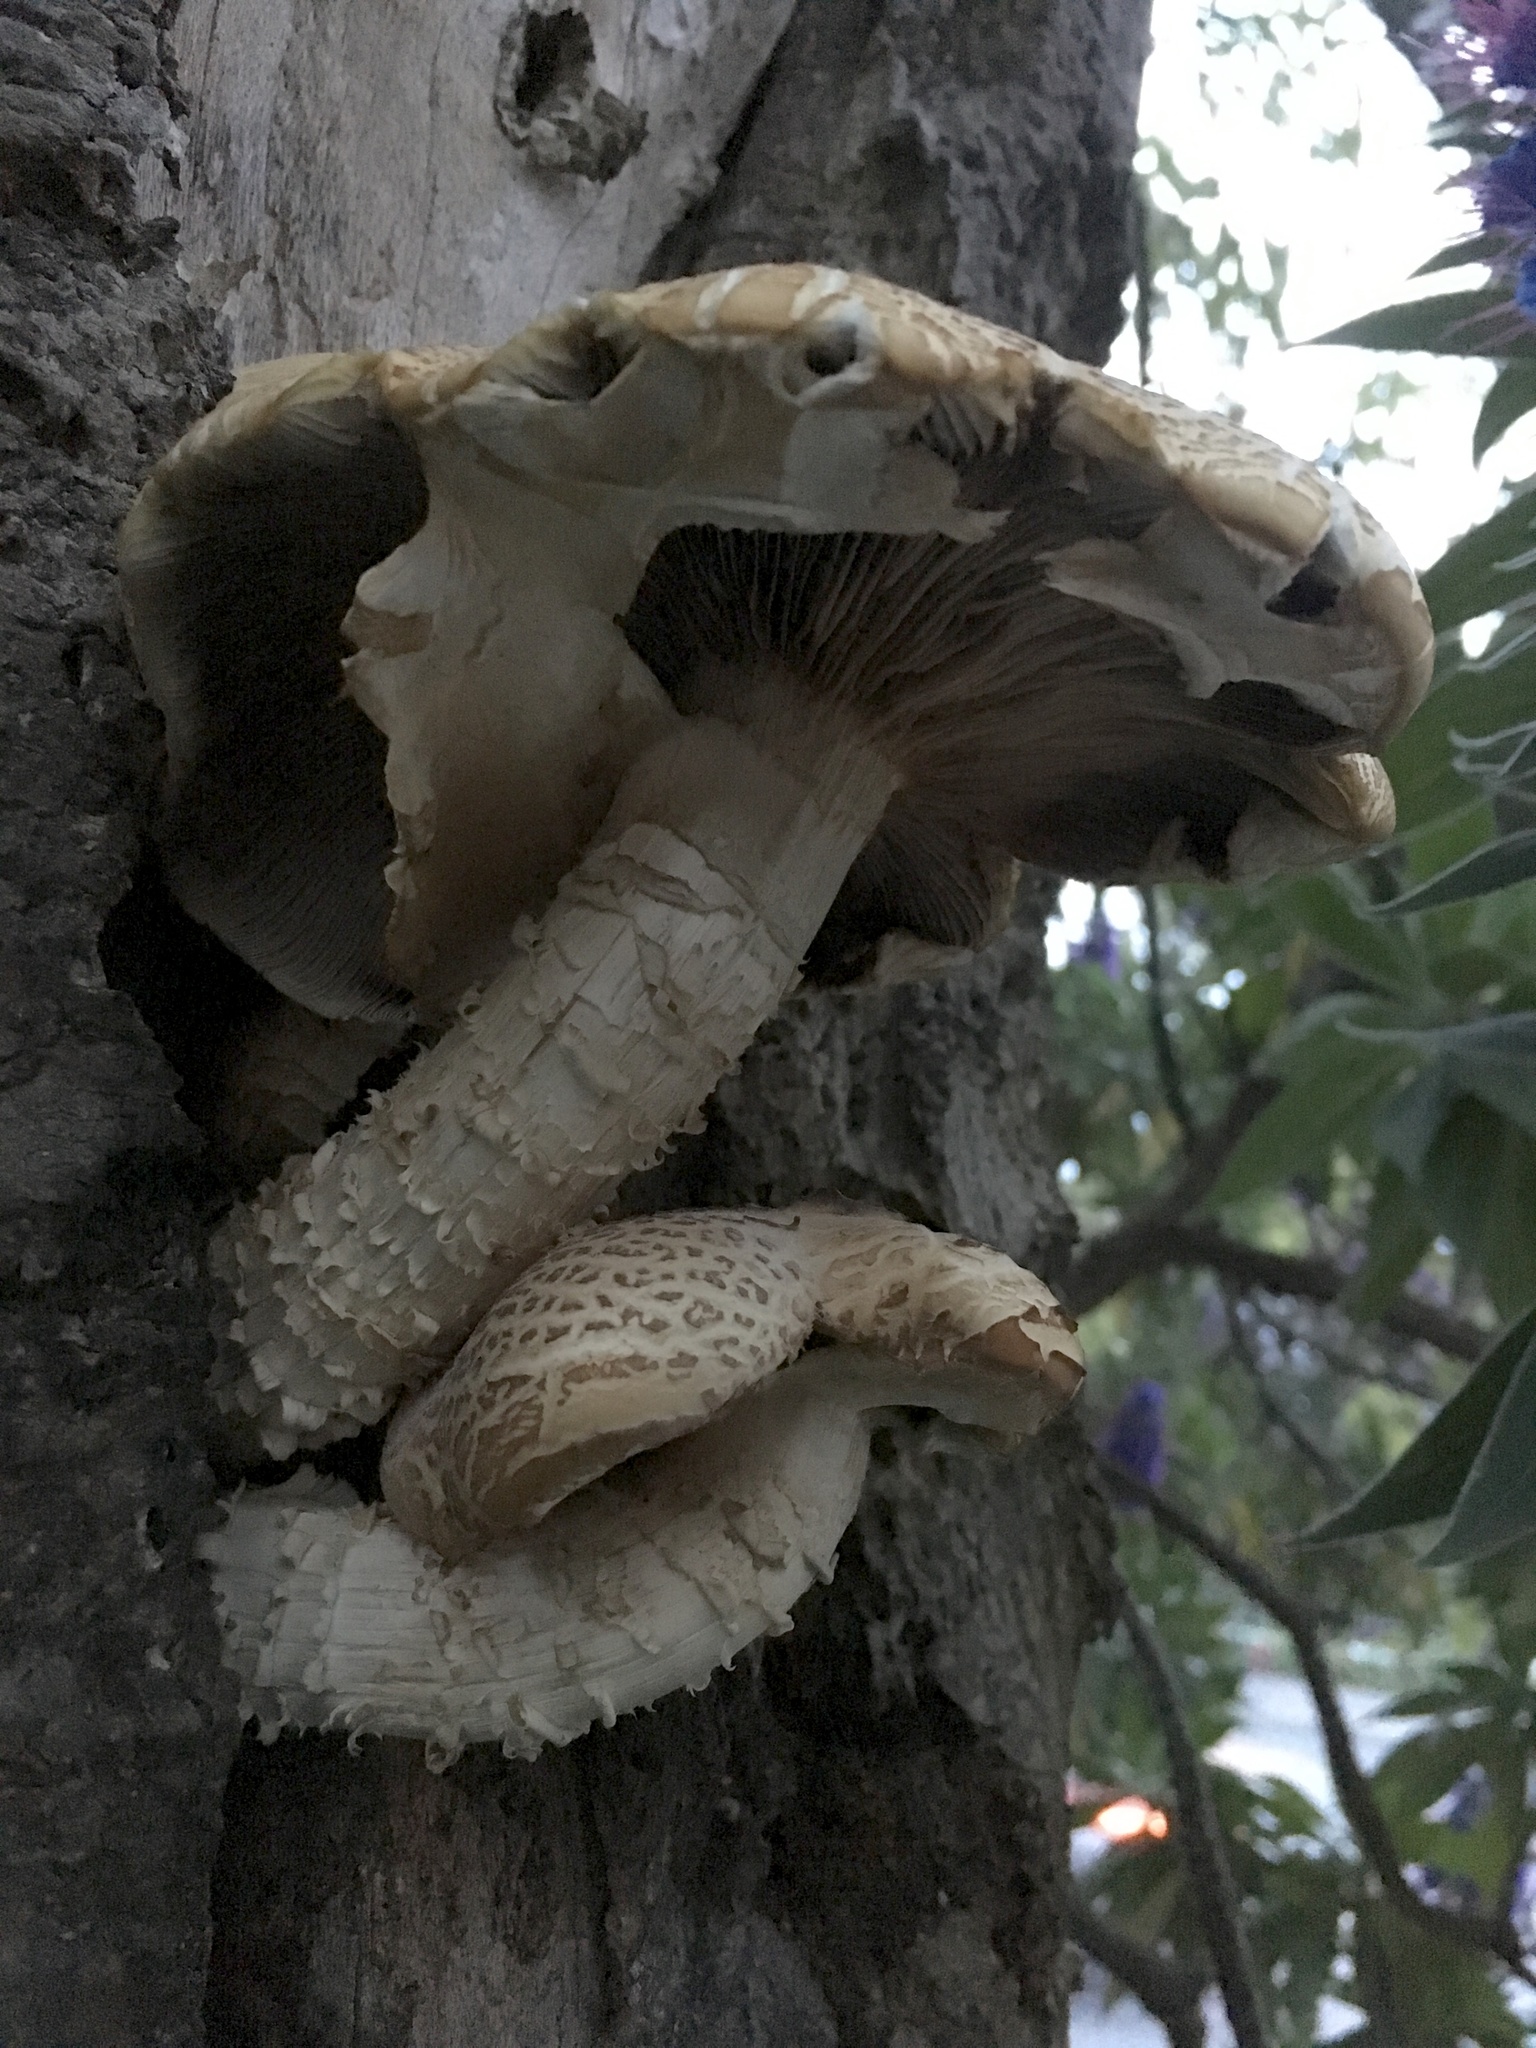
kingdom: Fungi
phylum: Basidiomycota
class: Agaricomycetes
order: Agaricales
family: Tubariaceae
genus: Cyclocybe
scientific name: Cyclocybe parasitica
